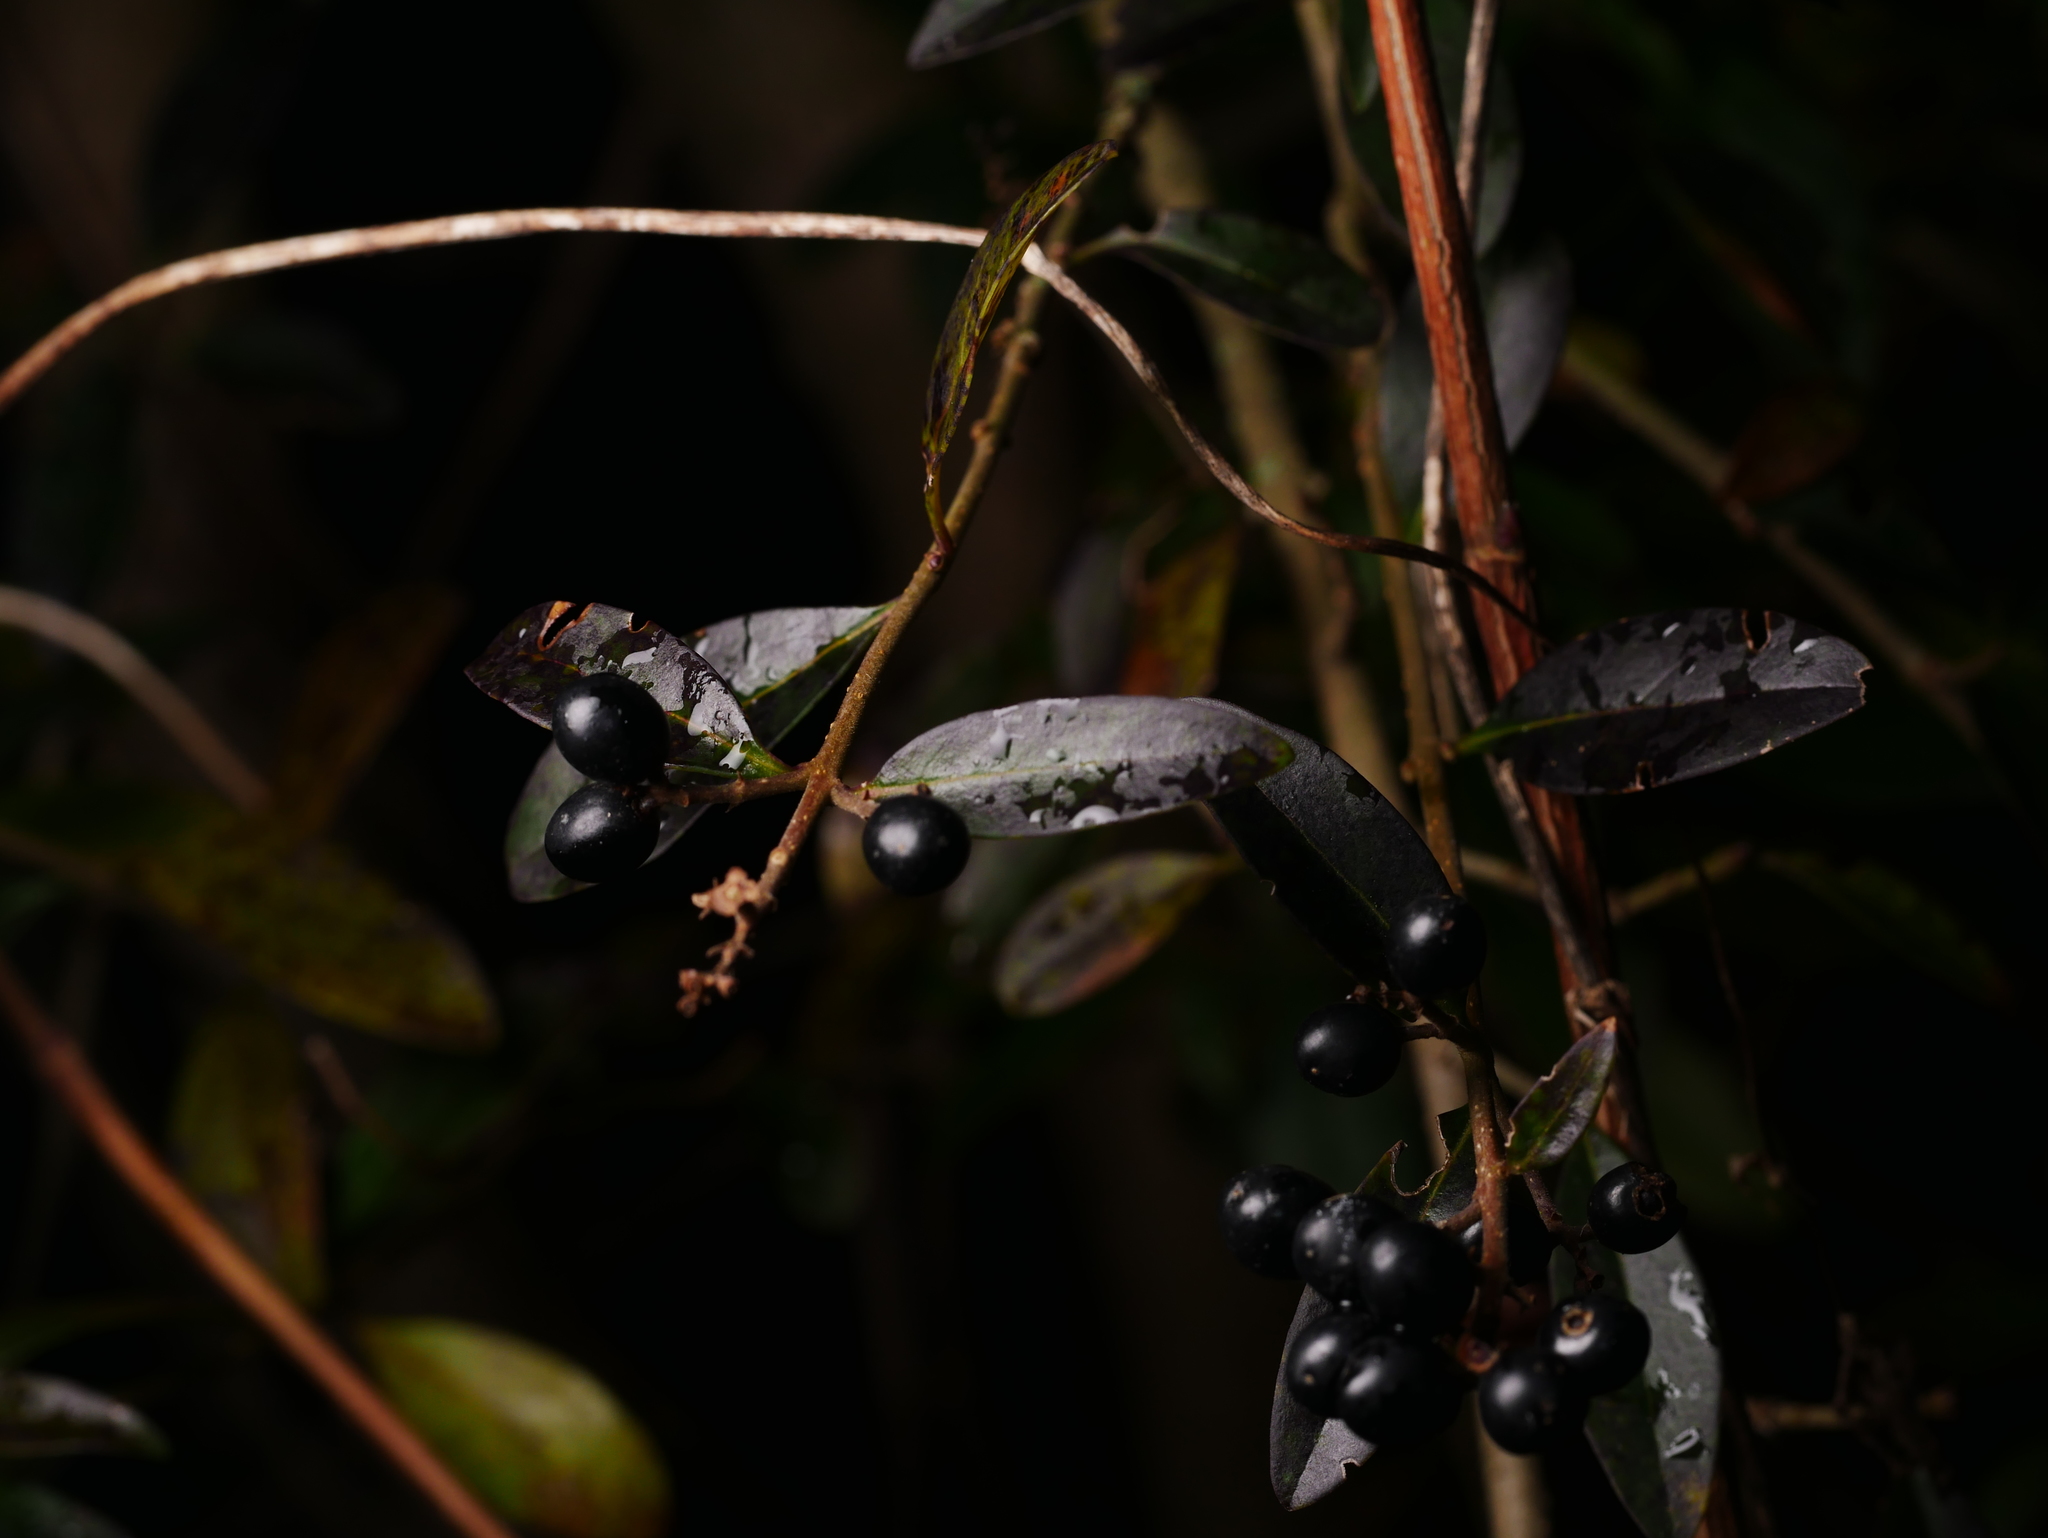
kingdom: Plantae
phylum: Tracheophyta
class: Magnoliopsida
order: Lamiales
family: Oleaceae
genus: Ligustrum
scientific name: Ligustrum vulgare
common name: Wild privet
